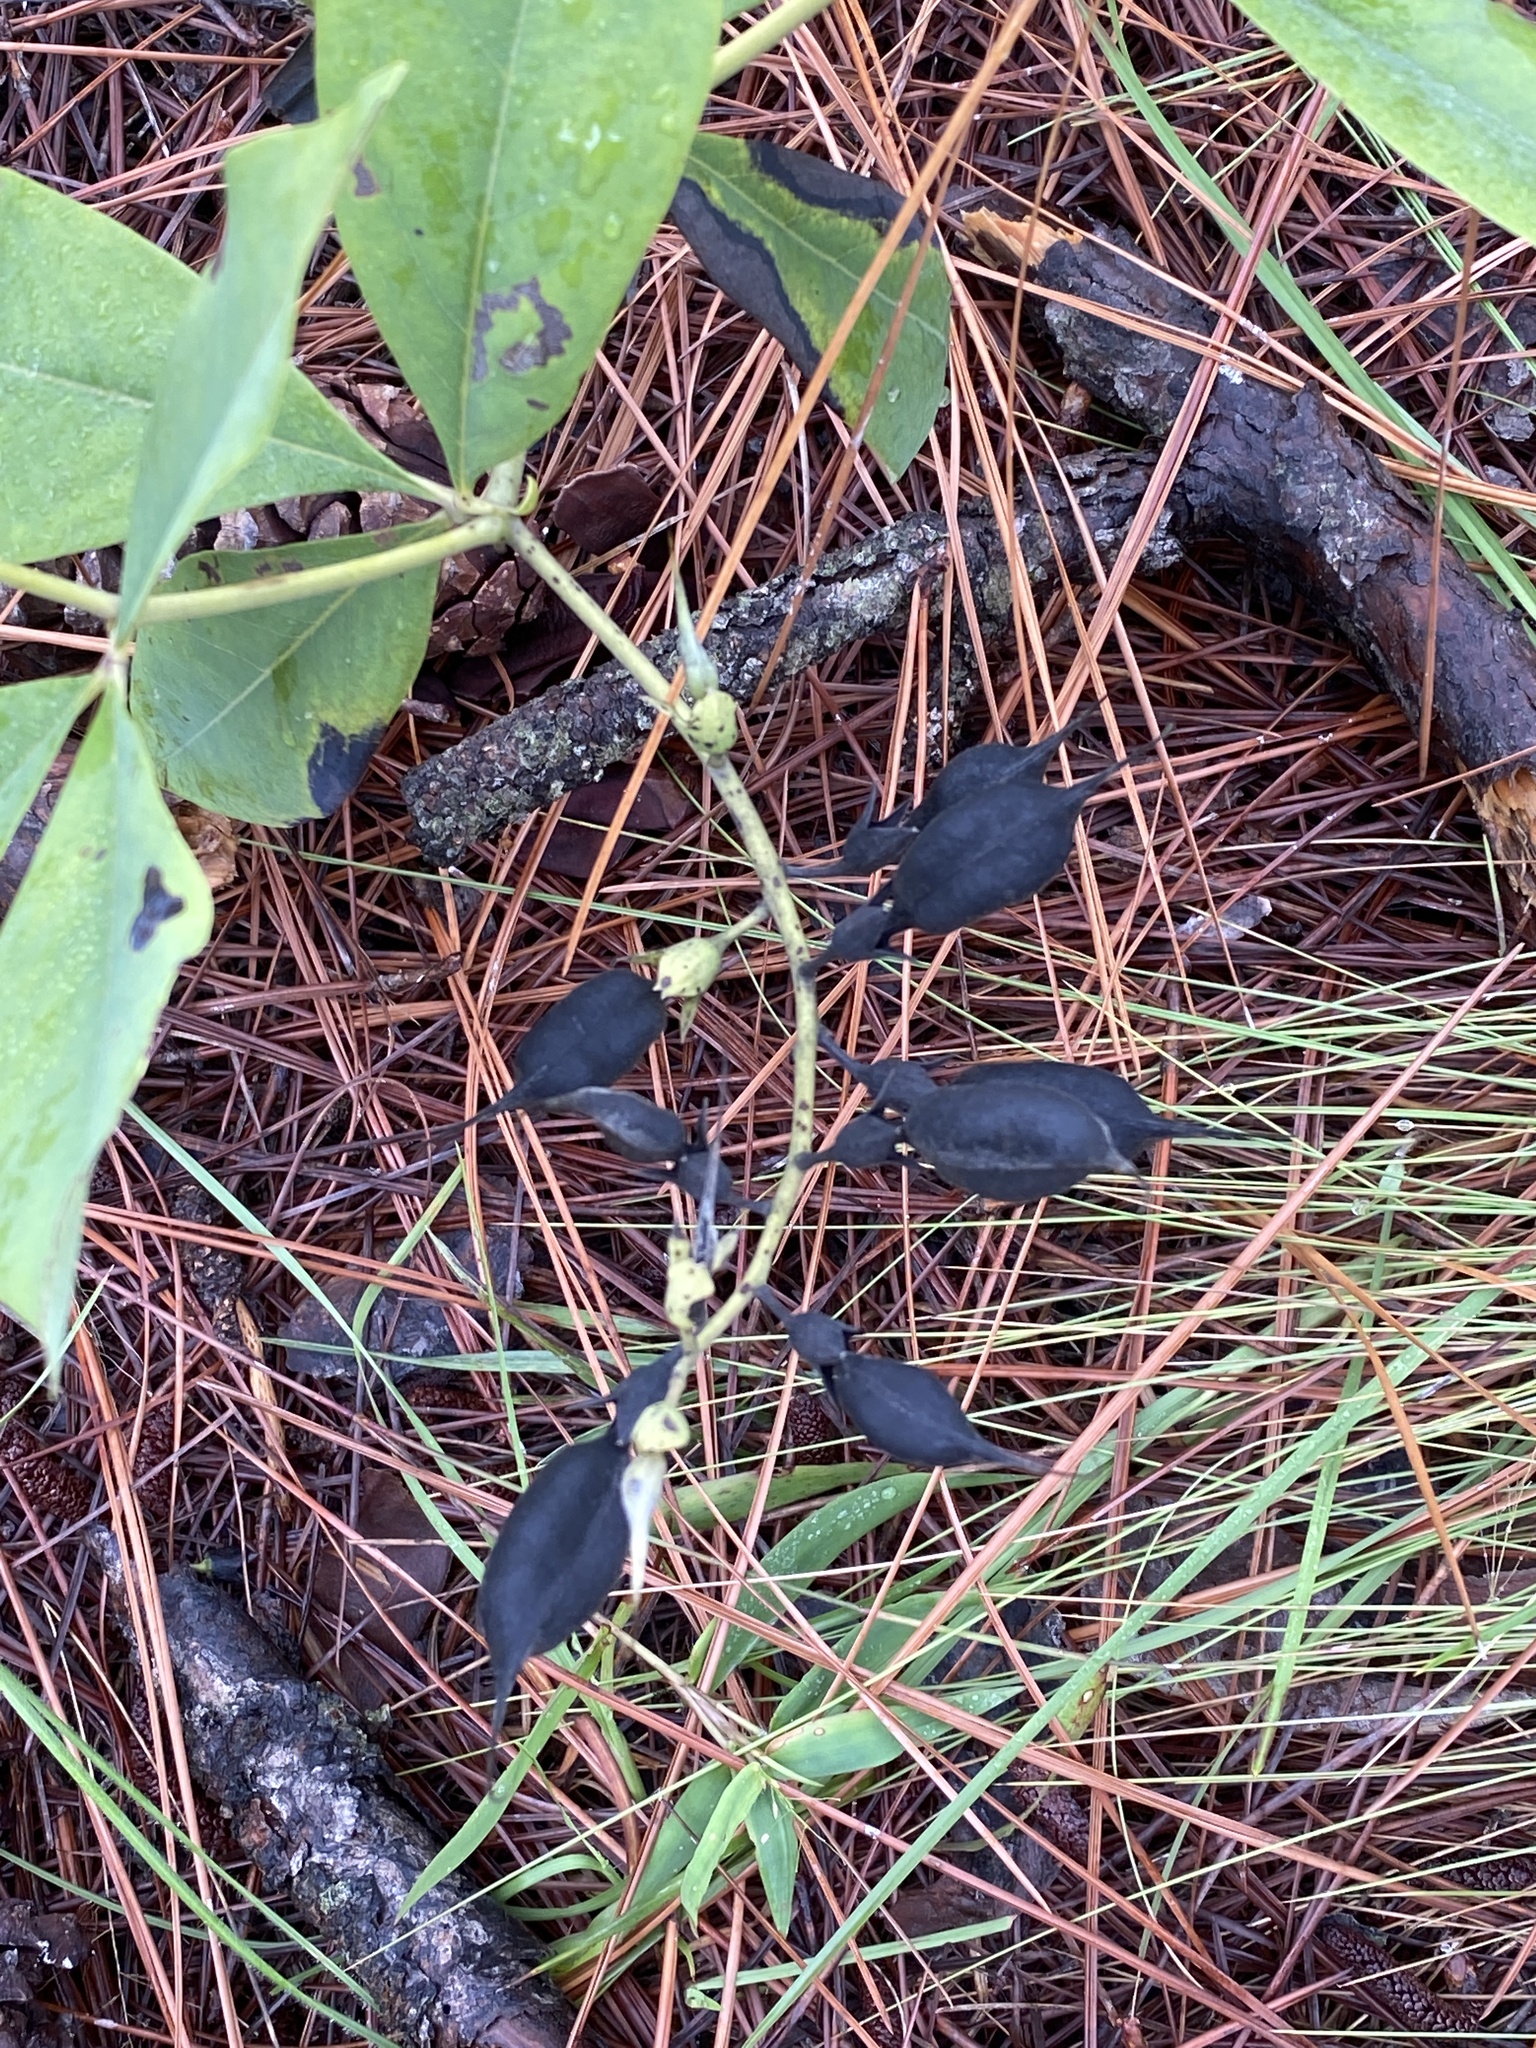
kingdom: Plantae
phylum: Tracheophyta
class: Magnoliopsida
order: Fabales
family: Fabaceae
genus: Baptisia
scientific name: Baptisia cinerea
